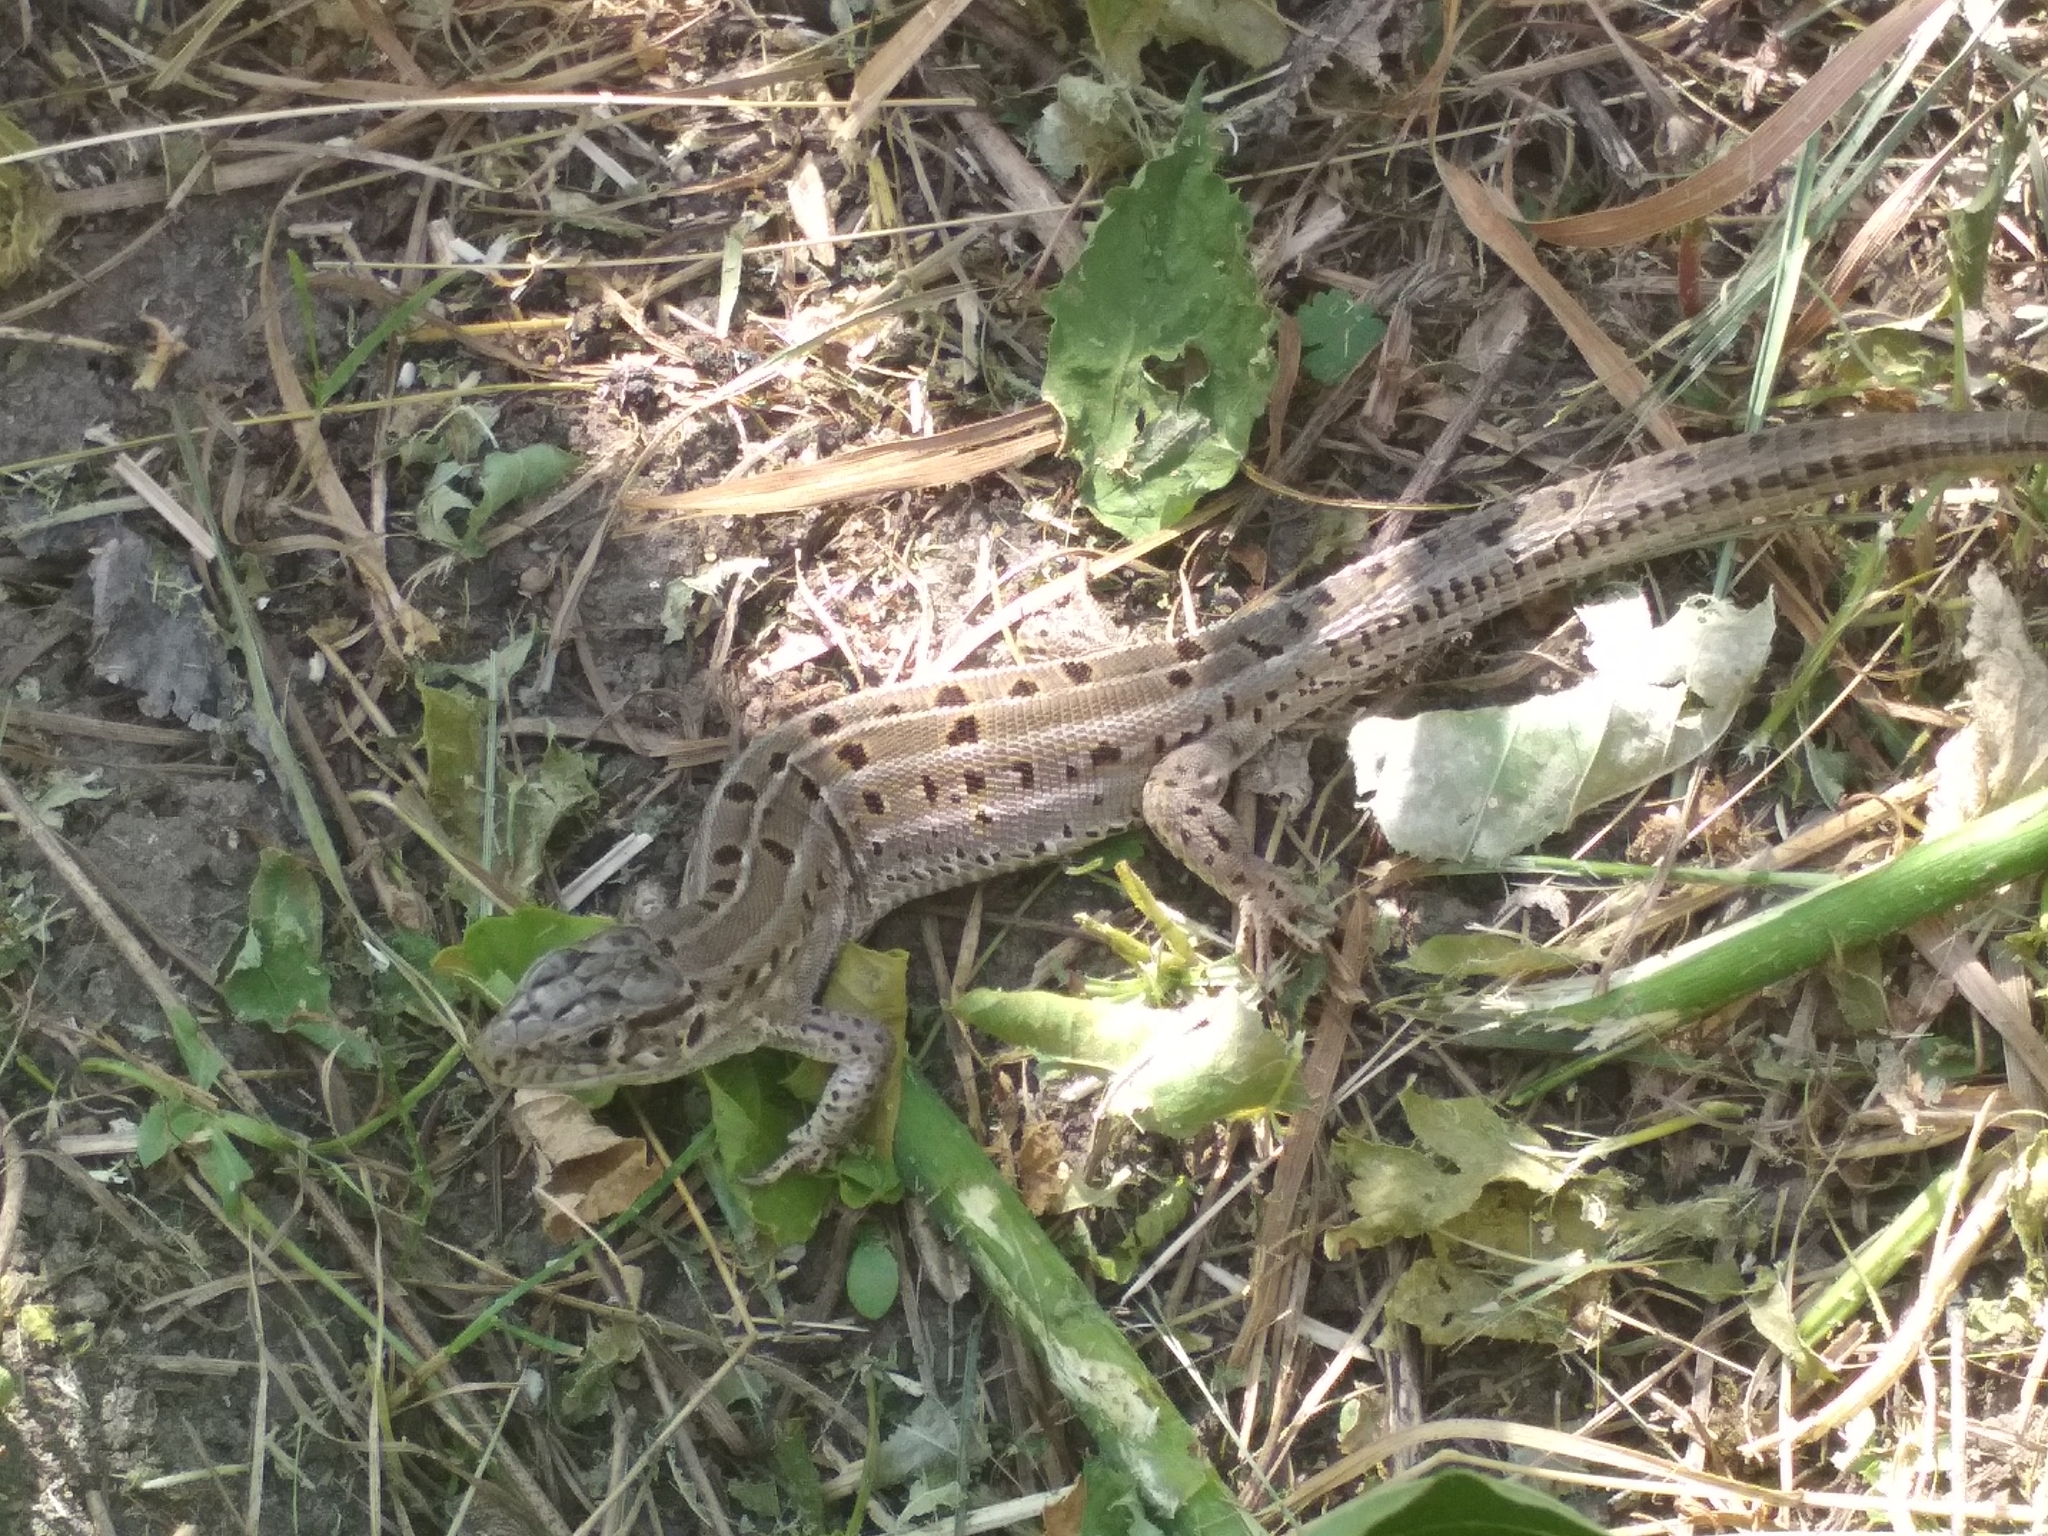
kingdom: Animalia
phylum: Chordata
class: Squamata
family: Lacertidae
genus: Lacerta
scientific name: Lacerta agilis
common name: Sand lizard
